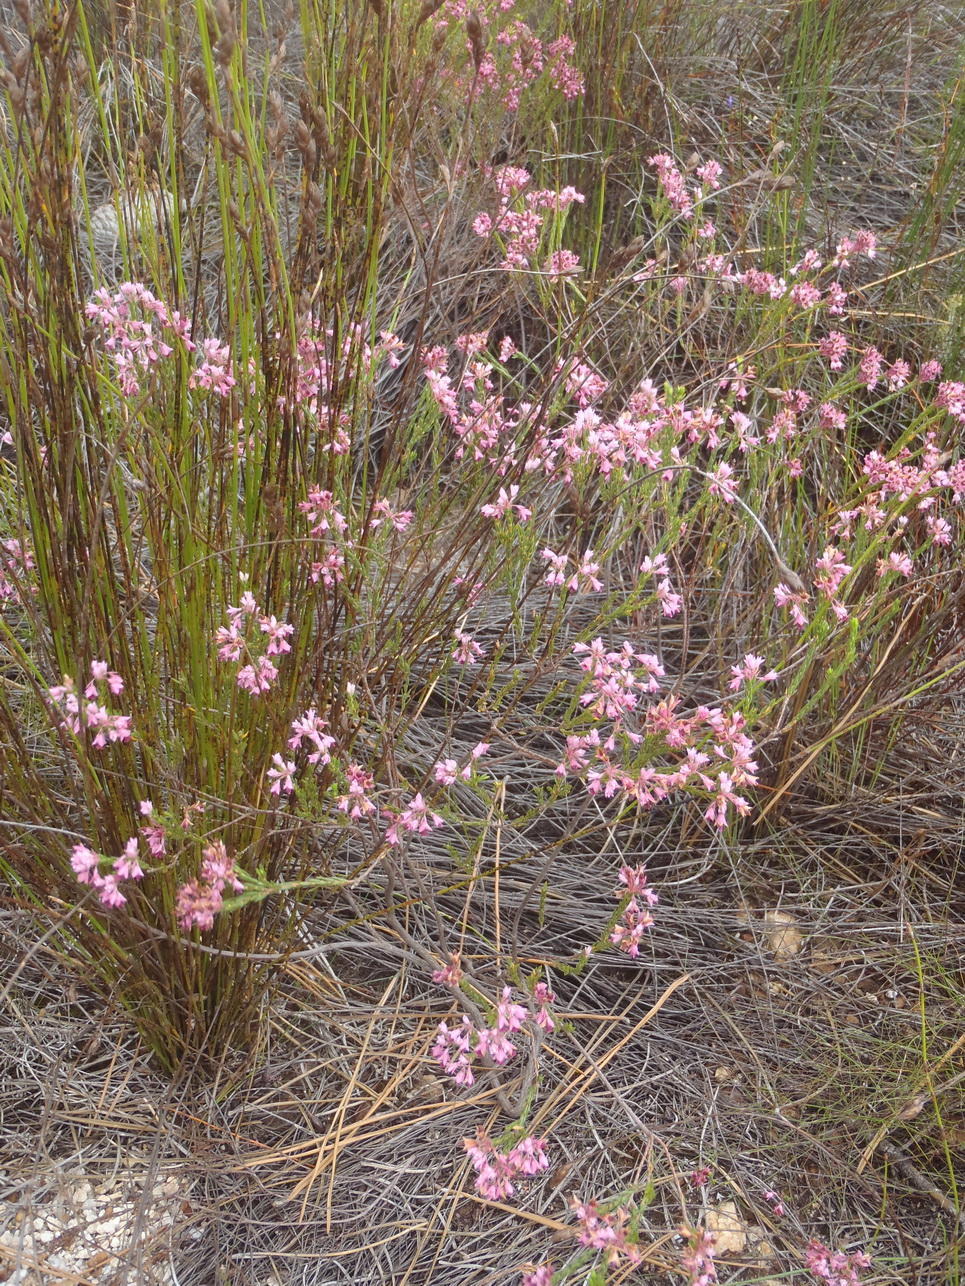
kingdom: Plantae
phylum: Tracheophyta
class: Magnoliopsida
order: Ericales
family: Ericaceae
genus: Erica
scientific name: Erica corifolia
